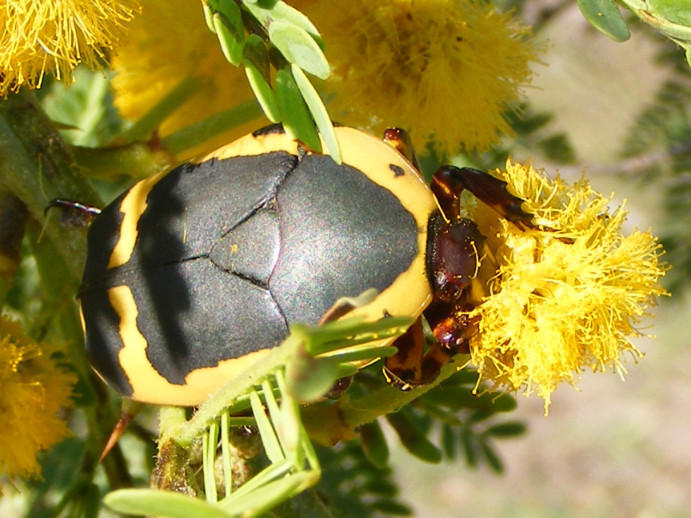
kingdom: Animalia
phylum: Arthropoda
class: Insecta
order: Coleoptera
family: Scarabaeidae
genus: Pachnoda
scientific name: Pachnoda sinuata
